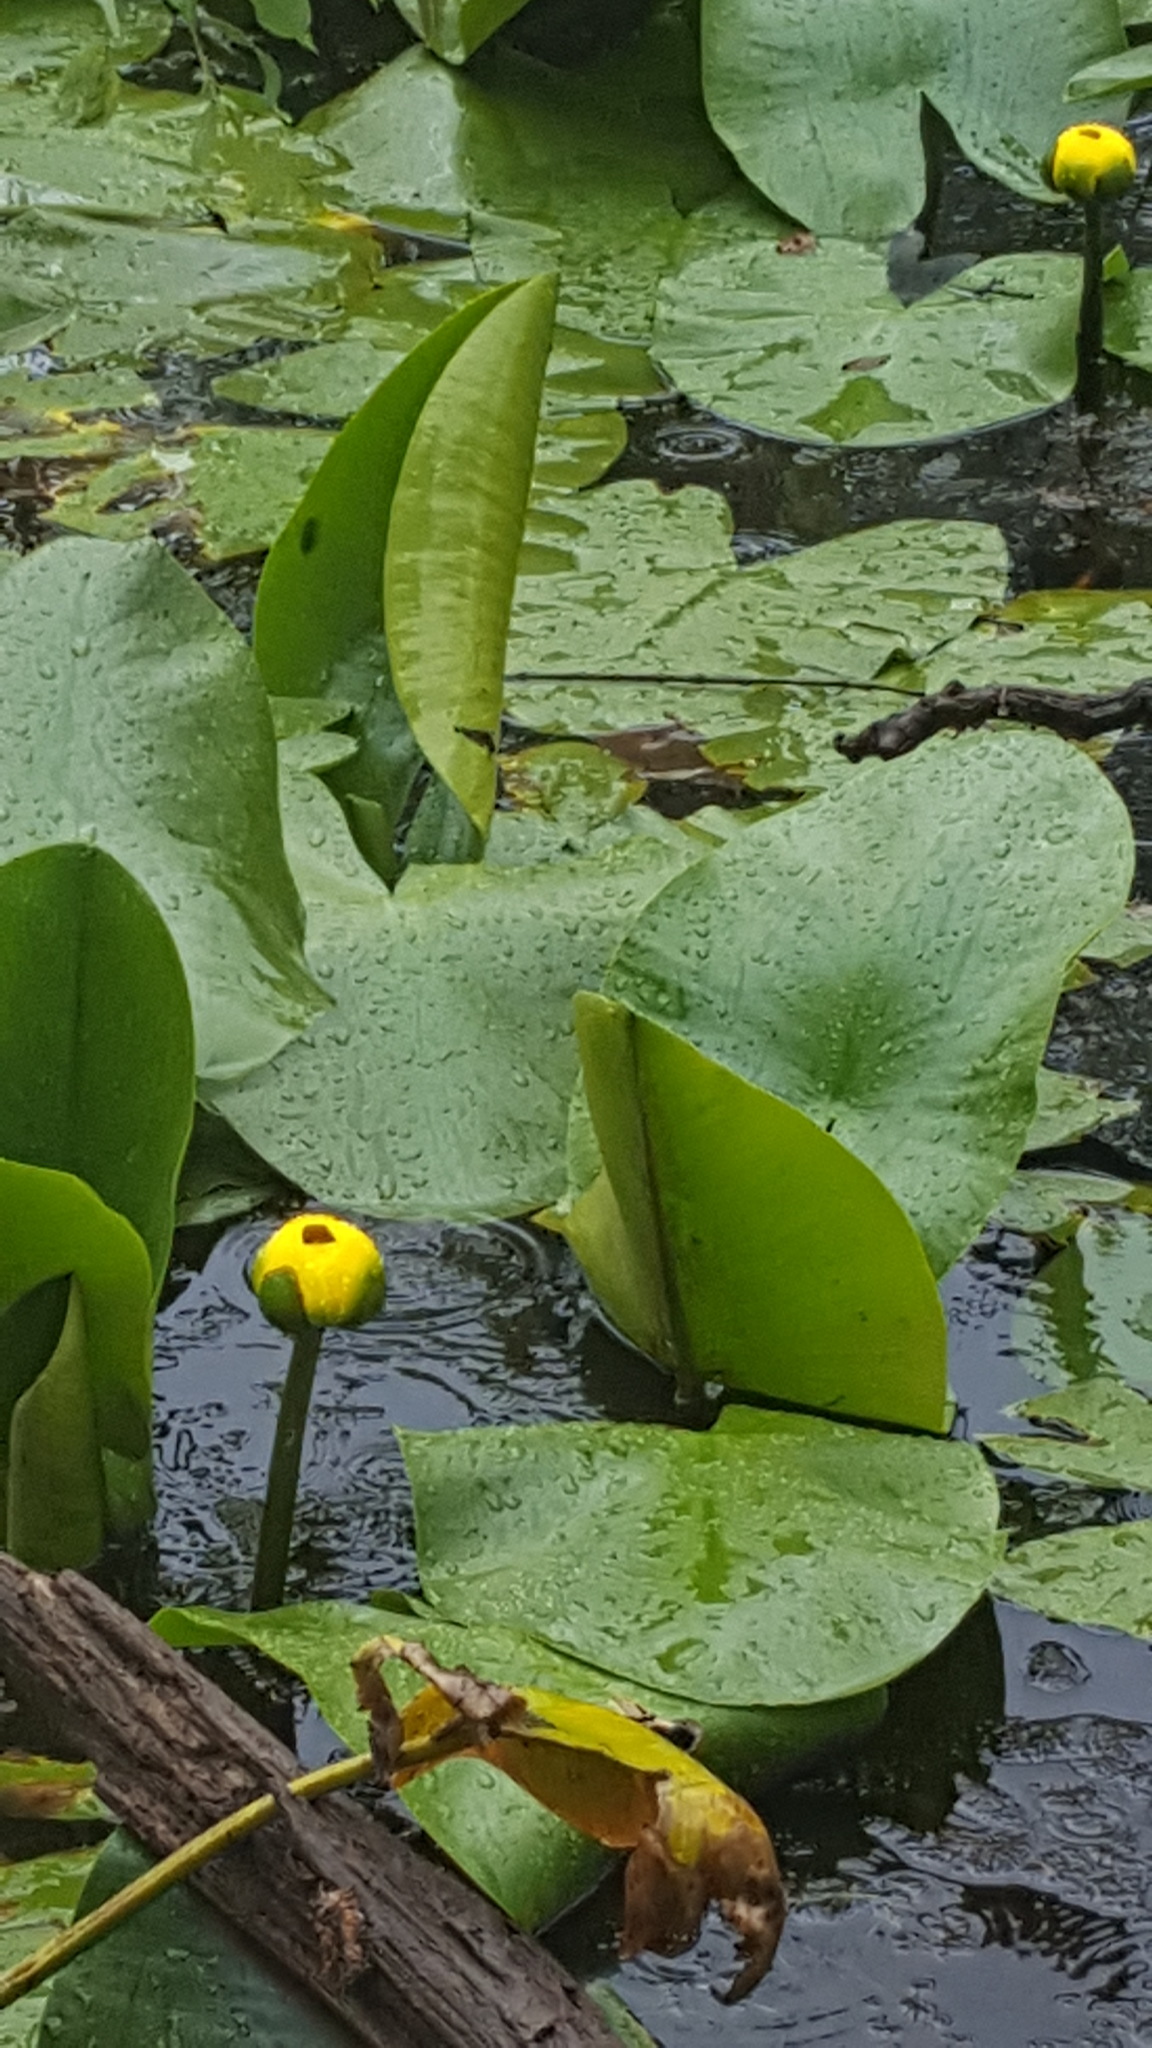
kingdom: Plantae
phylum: Tracheophyta
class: Magnoliopsida
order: Nymphaeales
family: Nymphaeaceae
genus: Nuphar
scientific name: Nuphar variegata
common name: Beaver-root
